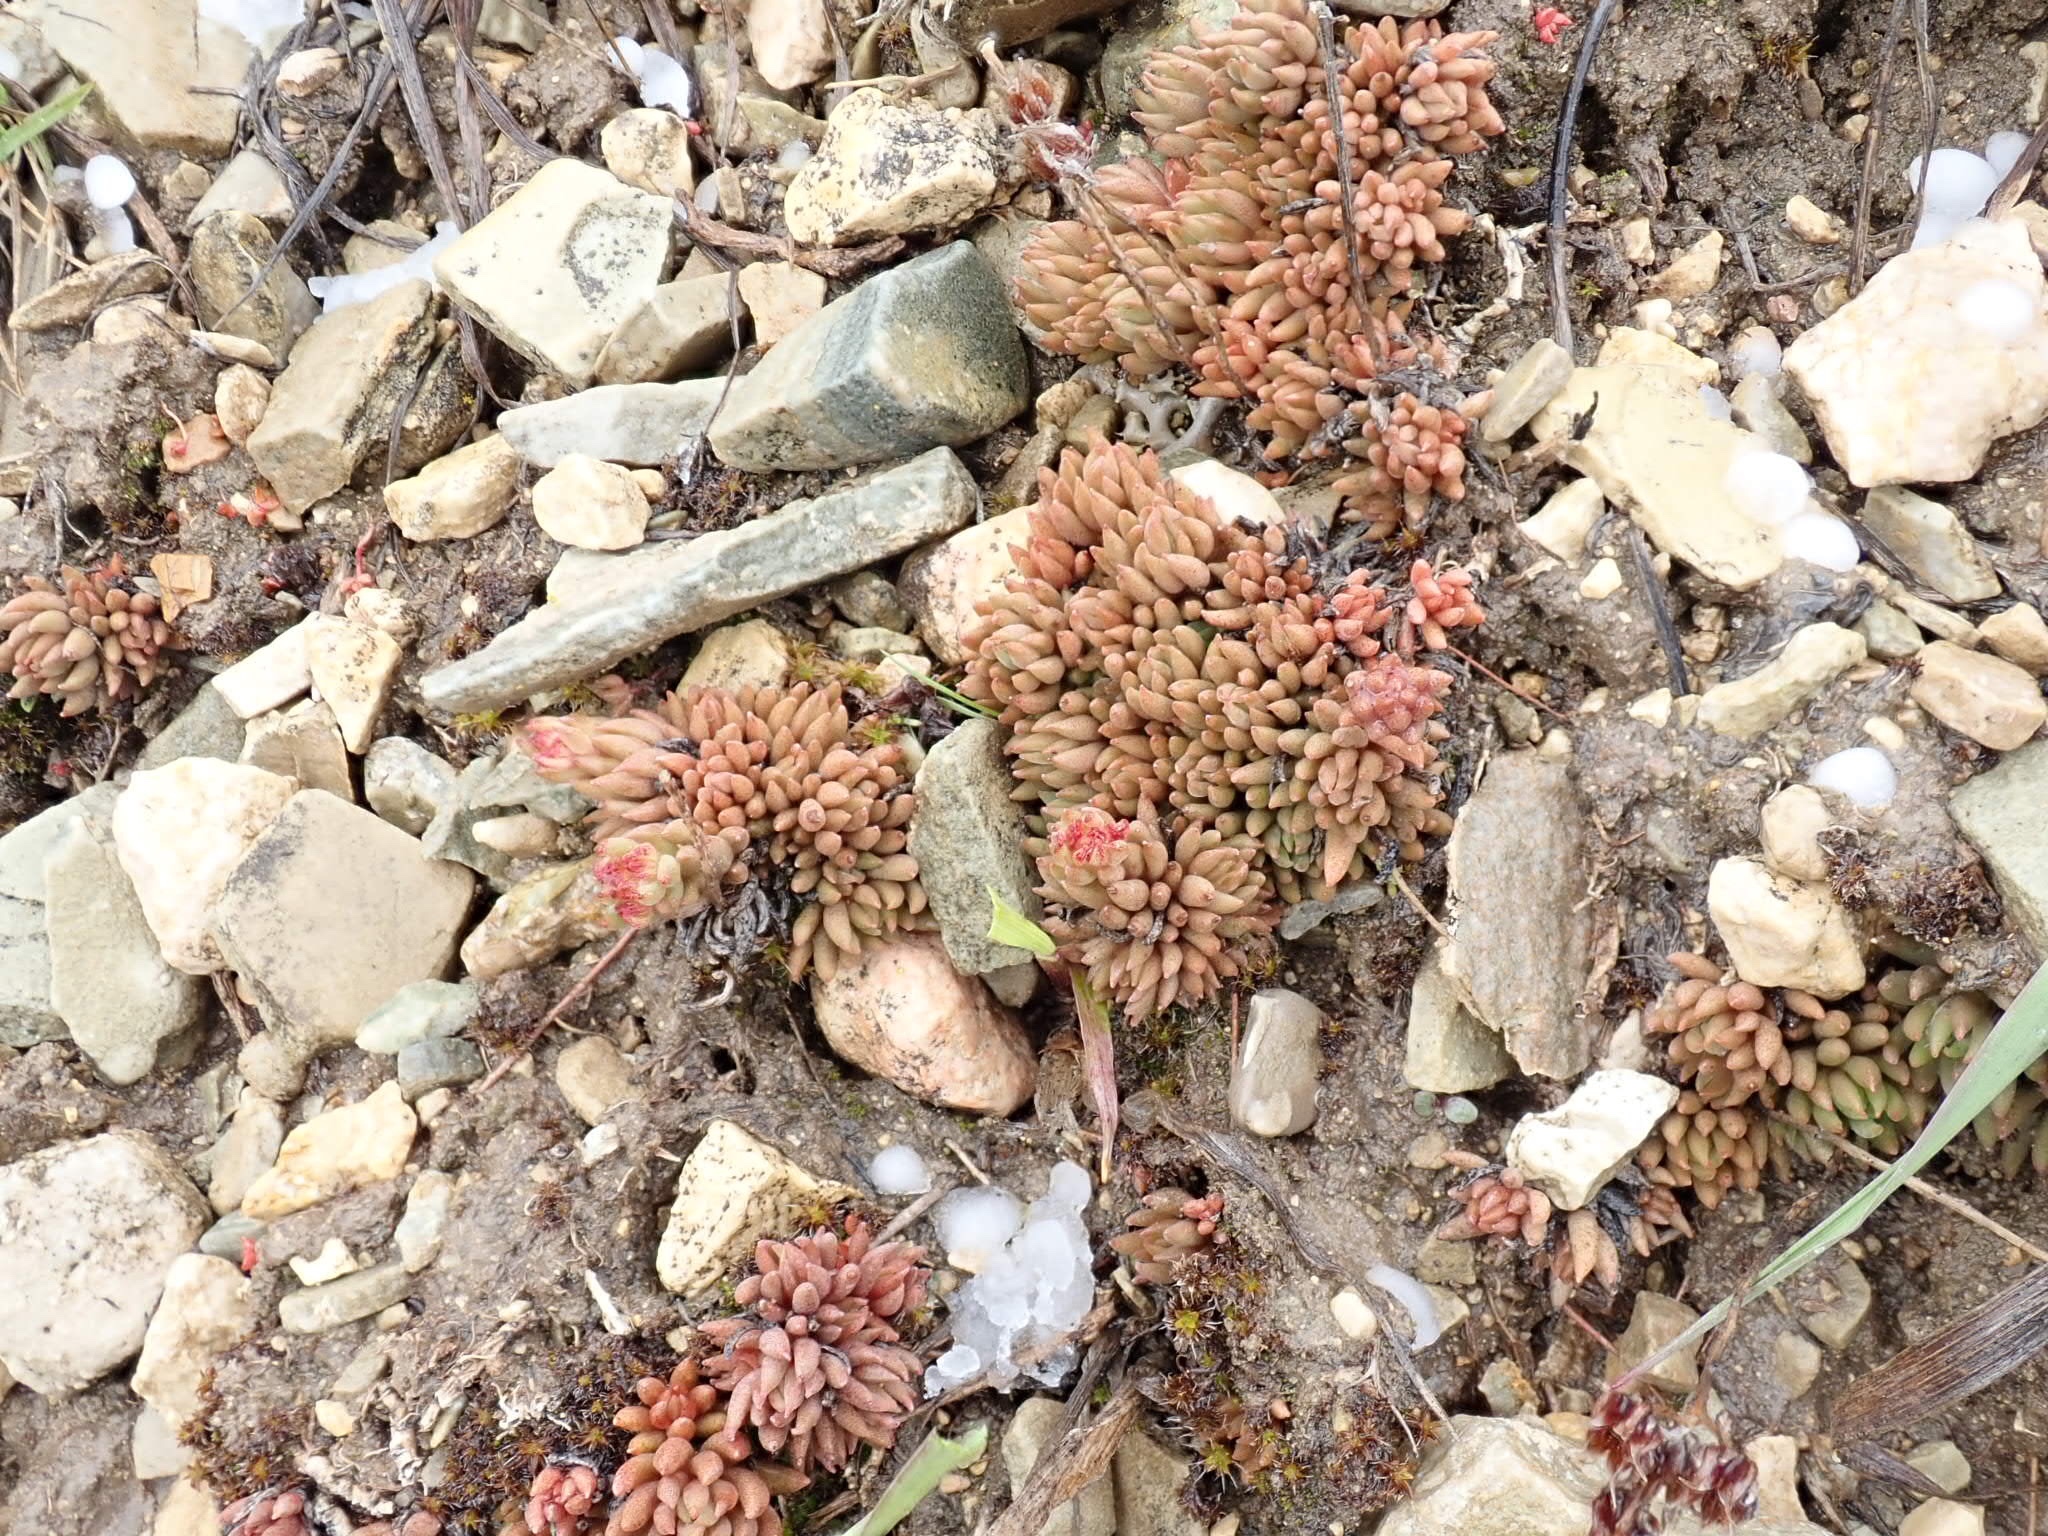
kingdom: Plantae
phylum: Tracheophyta
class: Magnoliopsida
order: Saxifragales
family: Crassulaceae
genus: Sedum
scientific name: Sedum lanceolatum
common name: Common stonecrop
